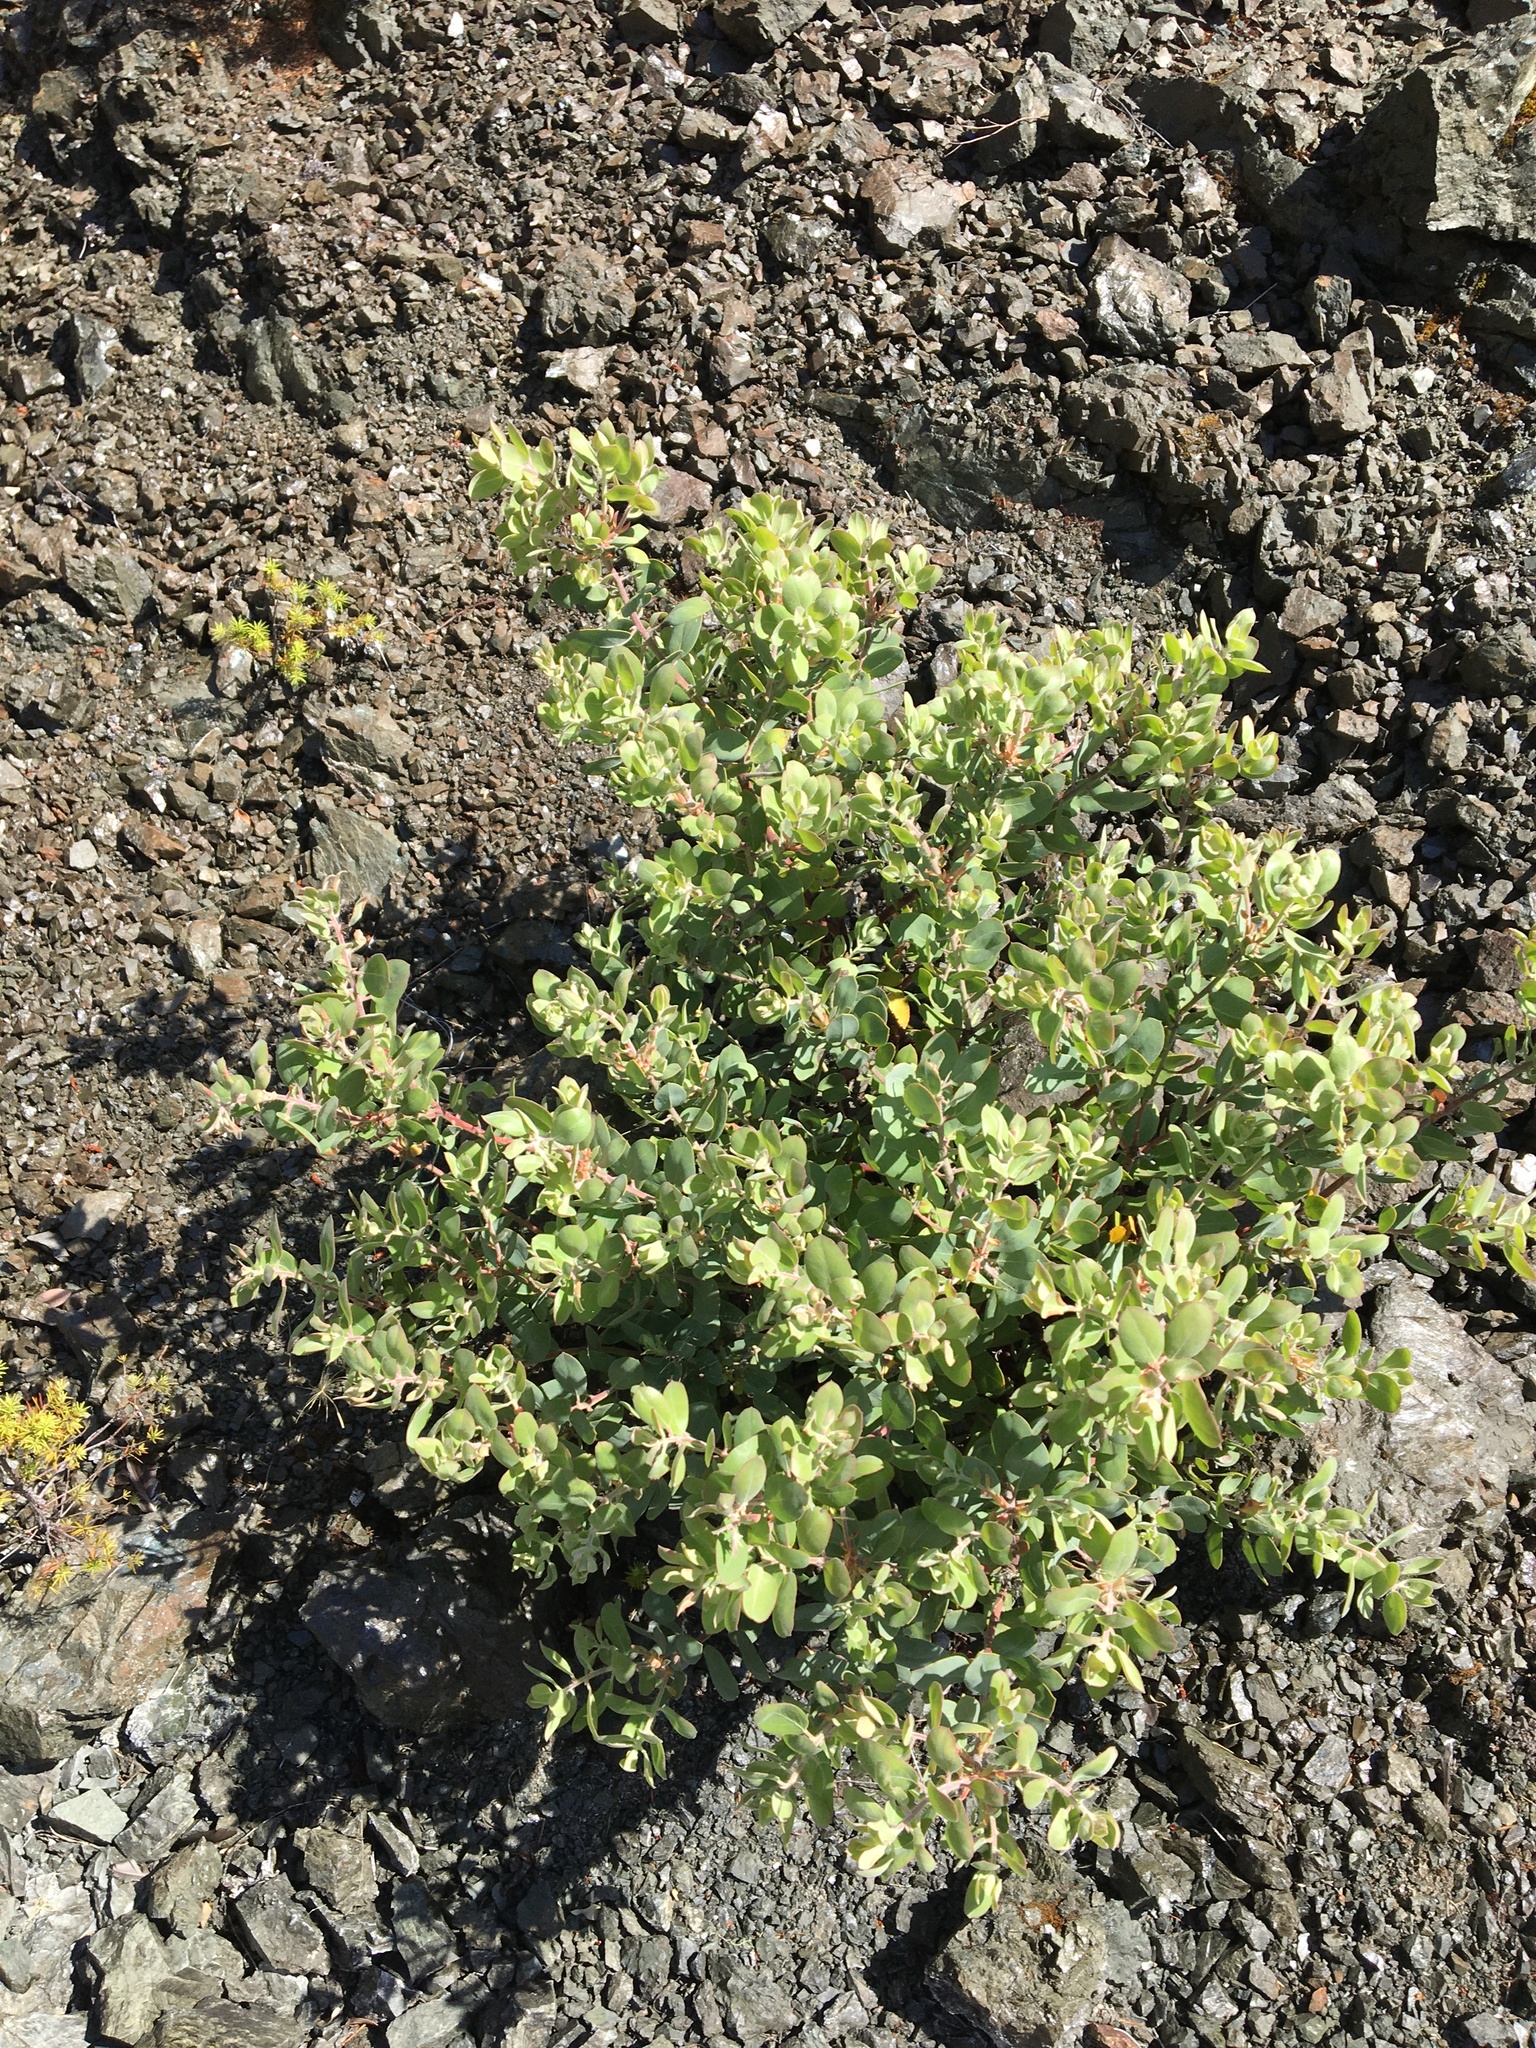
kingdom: Plantae
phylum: Tracheophyta
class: Magnoliopsida
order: Ericales
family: Ericaceae
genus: Arctostaphylos
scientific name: Arctostaphylos columbiana
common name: Bristly bearberry
